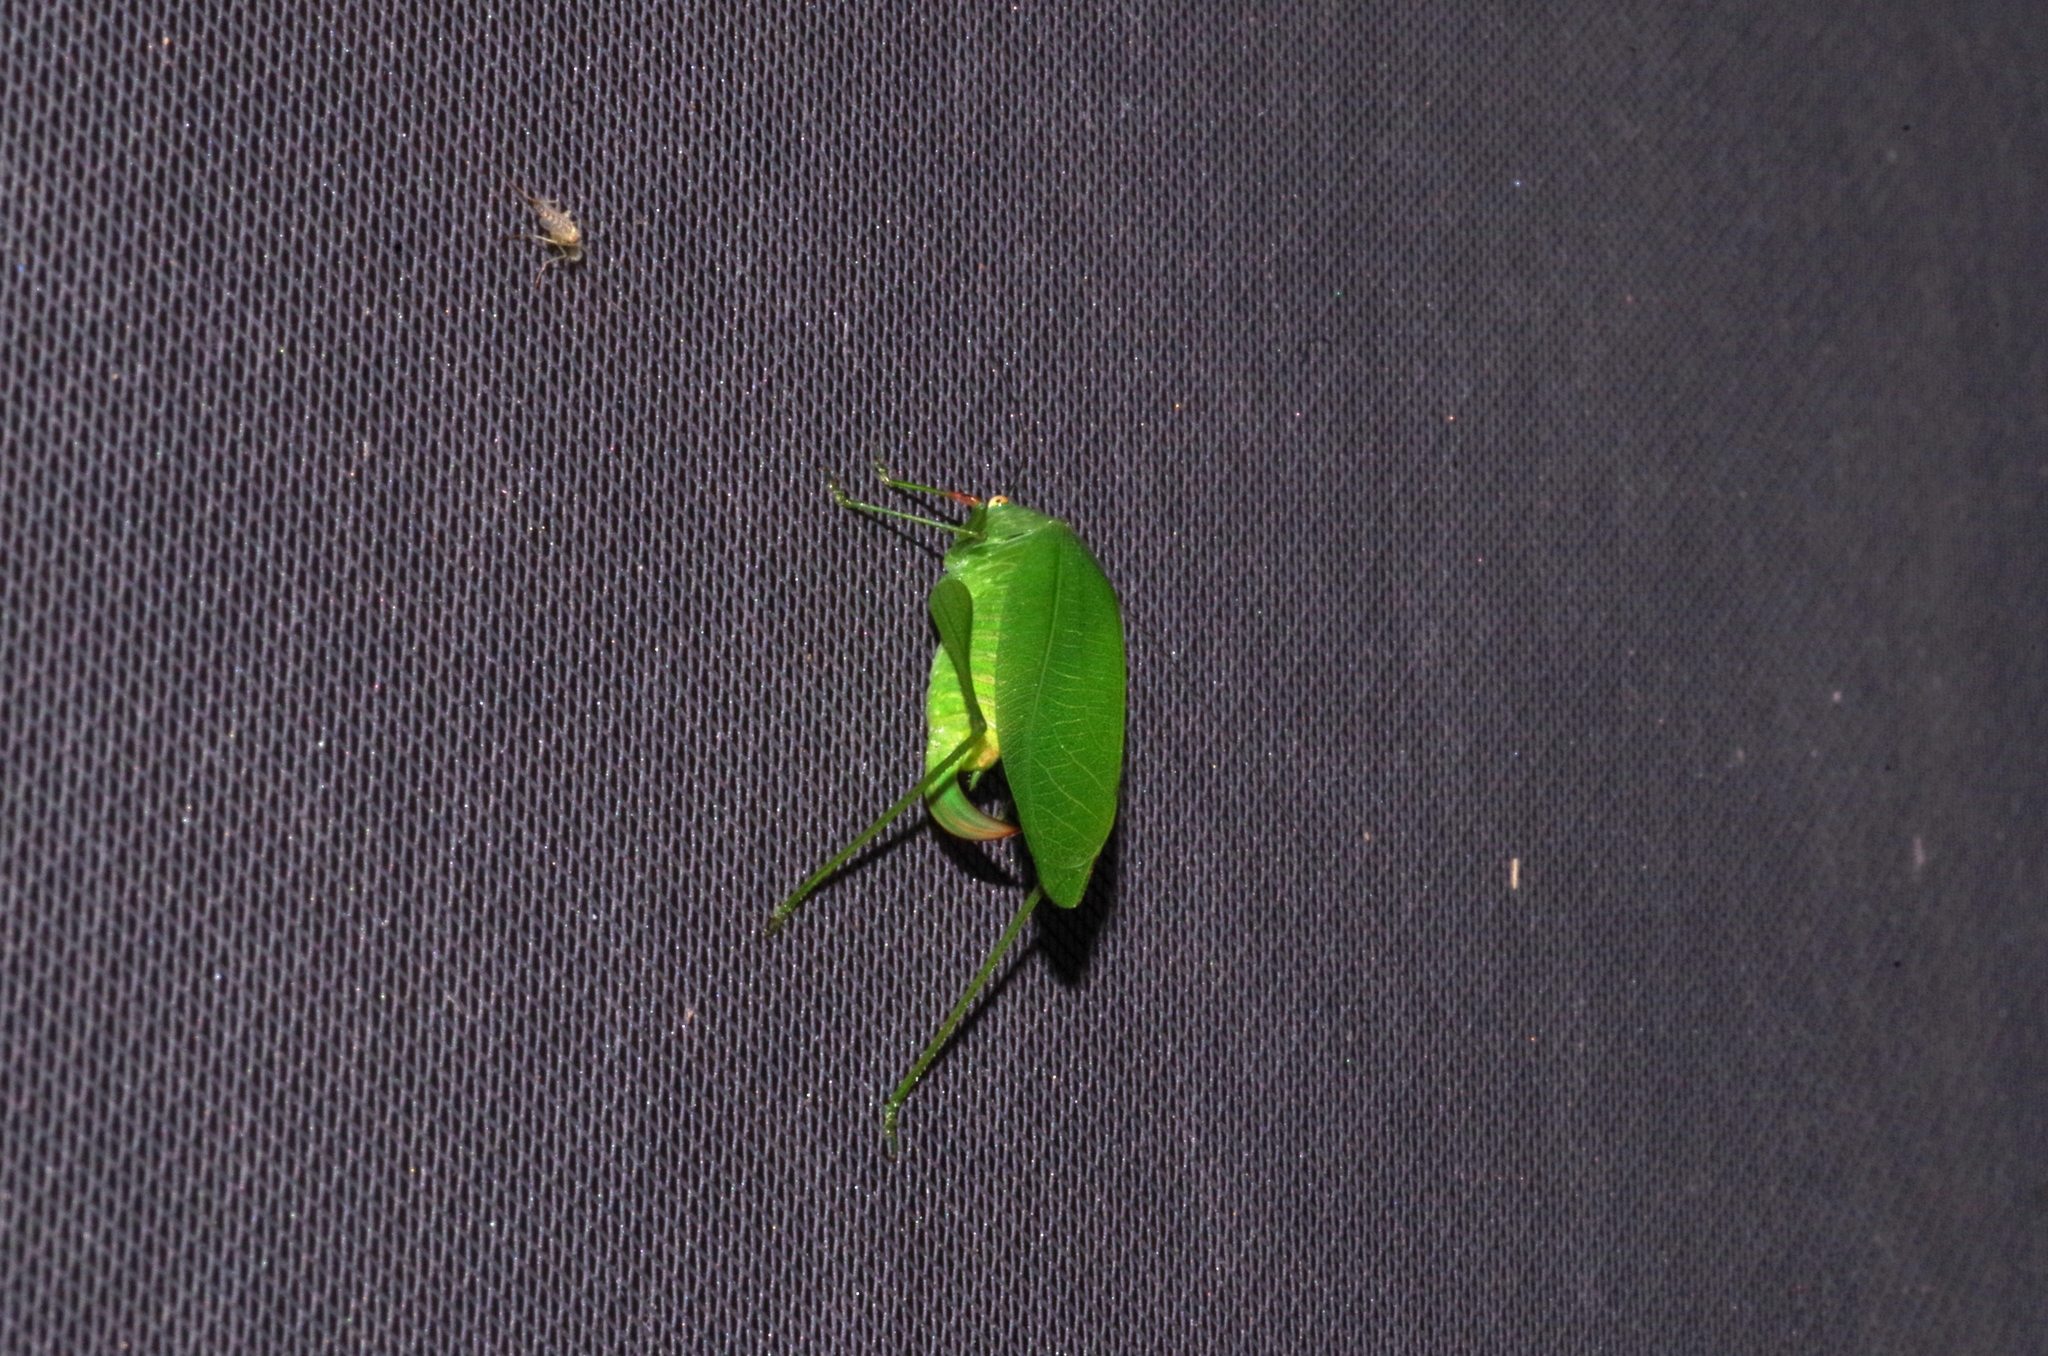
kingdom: Animalia
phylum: Arthropoda
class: Insecta
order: Orthoptera
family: Tettigoniidae
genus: Phaulula
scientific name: Phaulula daitoensis
